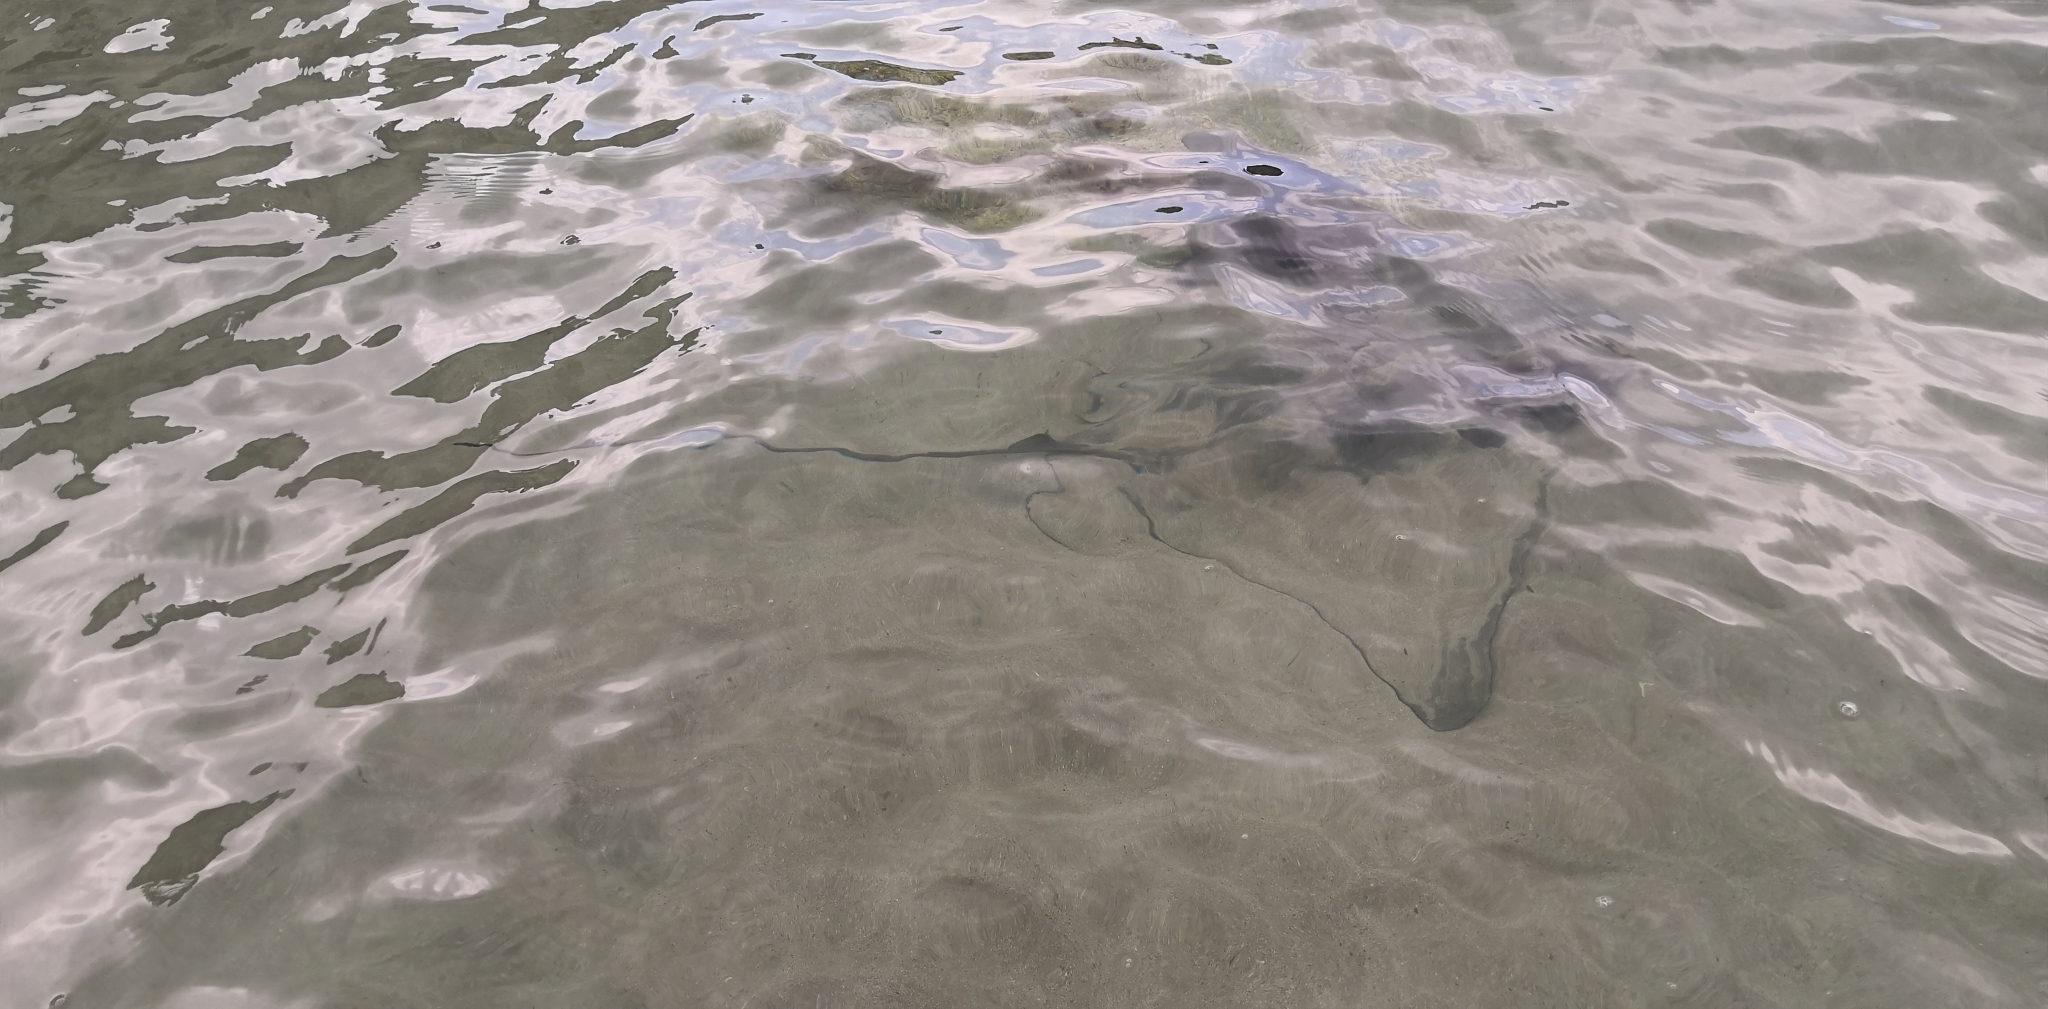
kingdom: Animalia
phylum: Chordata
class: Elasmobranchii
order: Myliobatiformes
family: Myliobatidae
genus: Myliobatis
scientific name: Myliobatis tenuicaudatus
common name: Eagle ray
